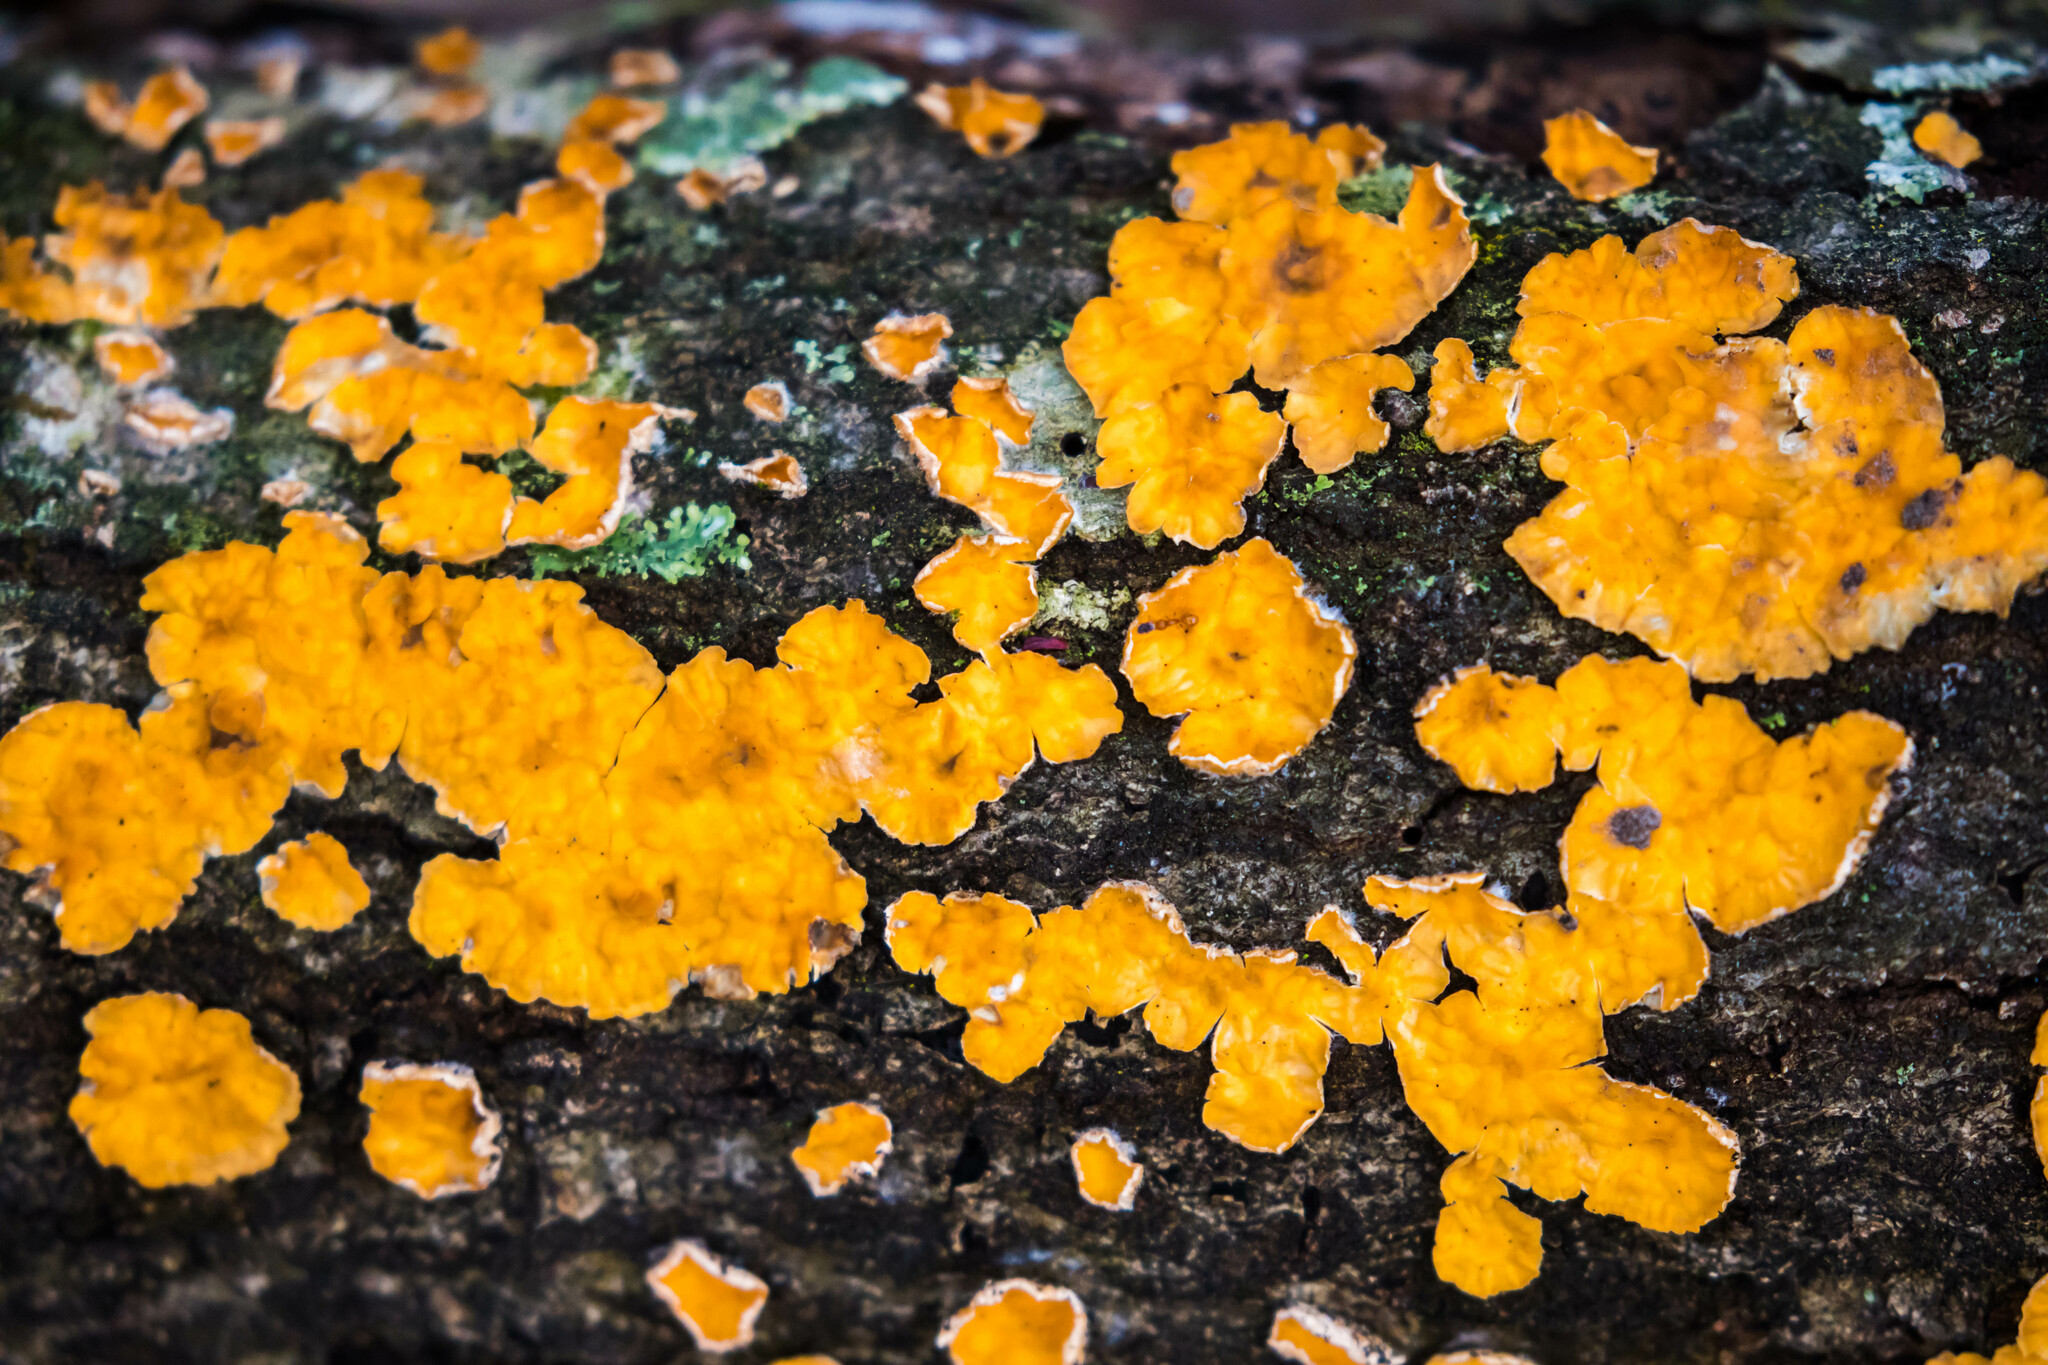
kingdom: Fungi
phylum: Basidiomycota
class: Agaricomycetes
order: Russulales
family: Stereaceae
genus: Stereum
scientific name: Stereum complicatum
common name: Crowded parchment
